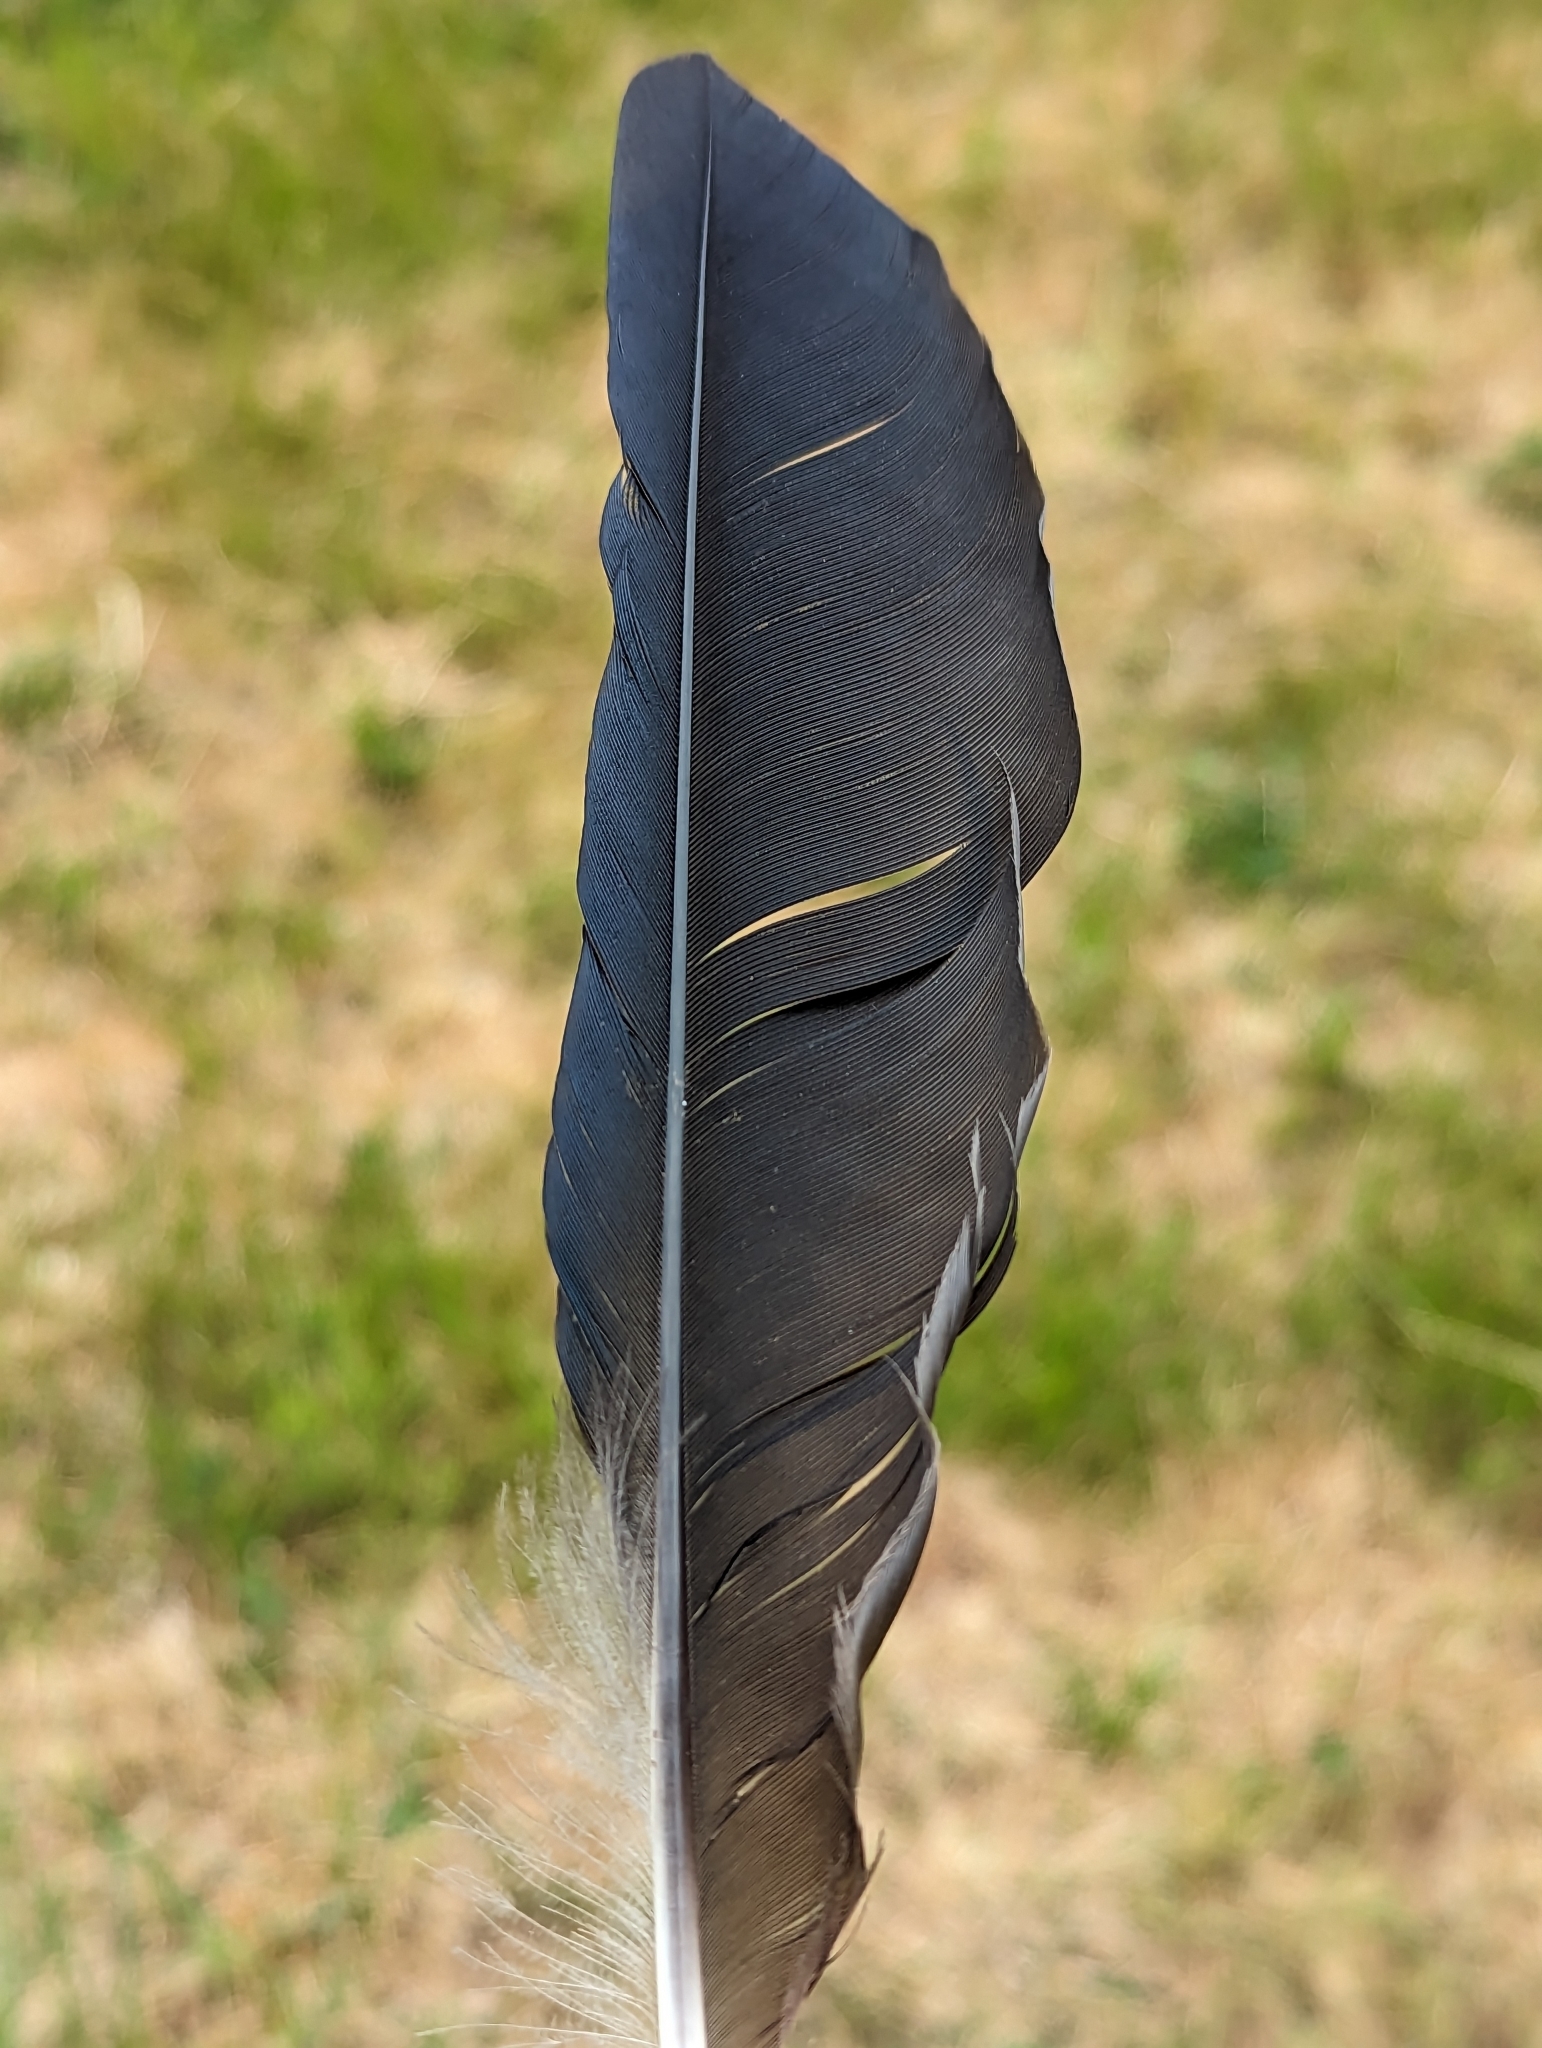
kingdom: Animalia
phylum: Chordata
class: Aves
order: Passeriformes
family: Corvidae
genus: Corvus
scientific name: Corvus corone
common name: Carrion crow
